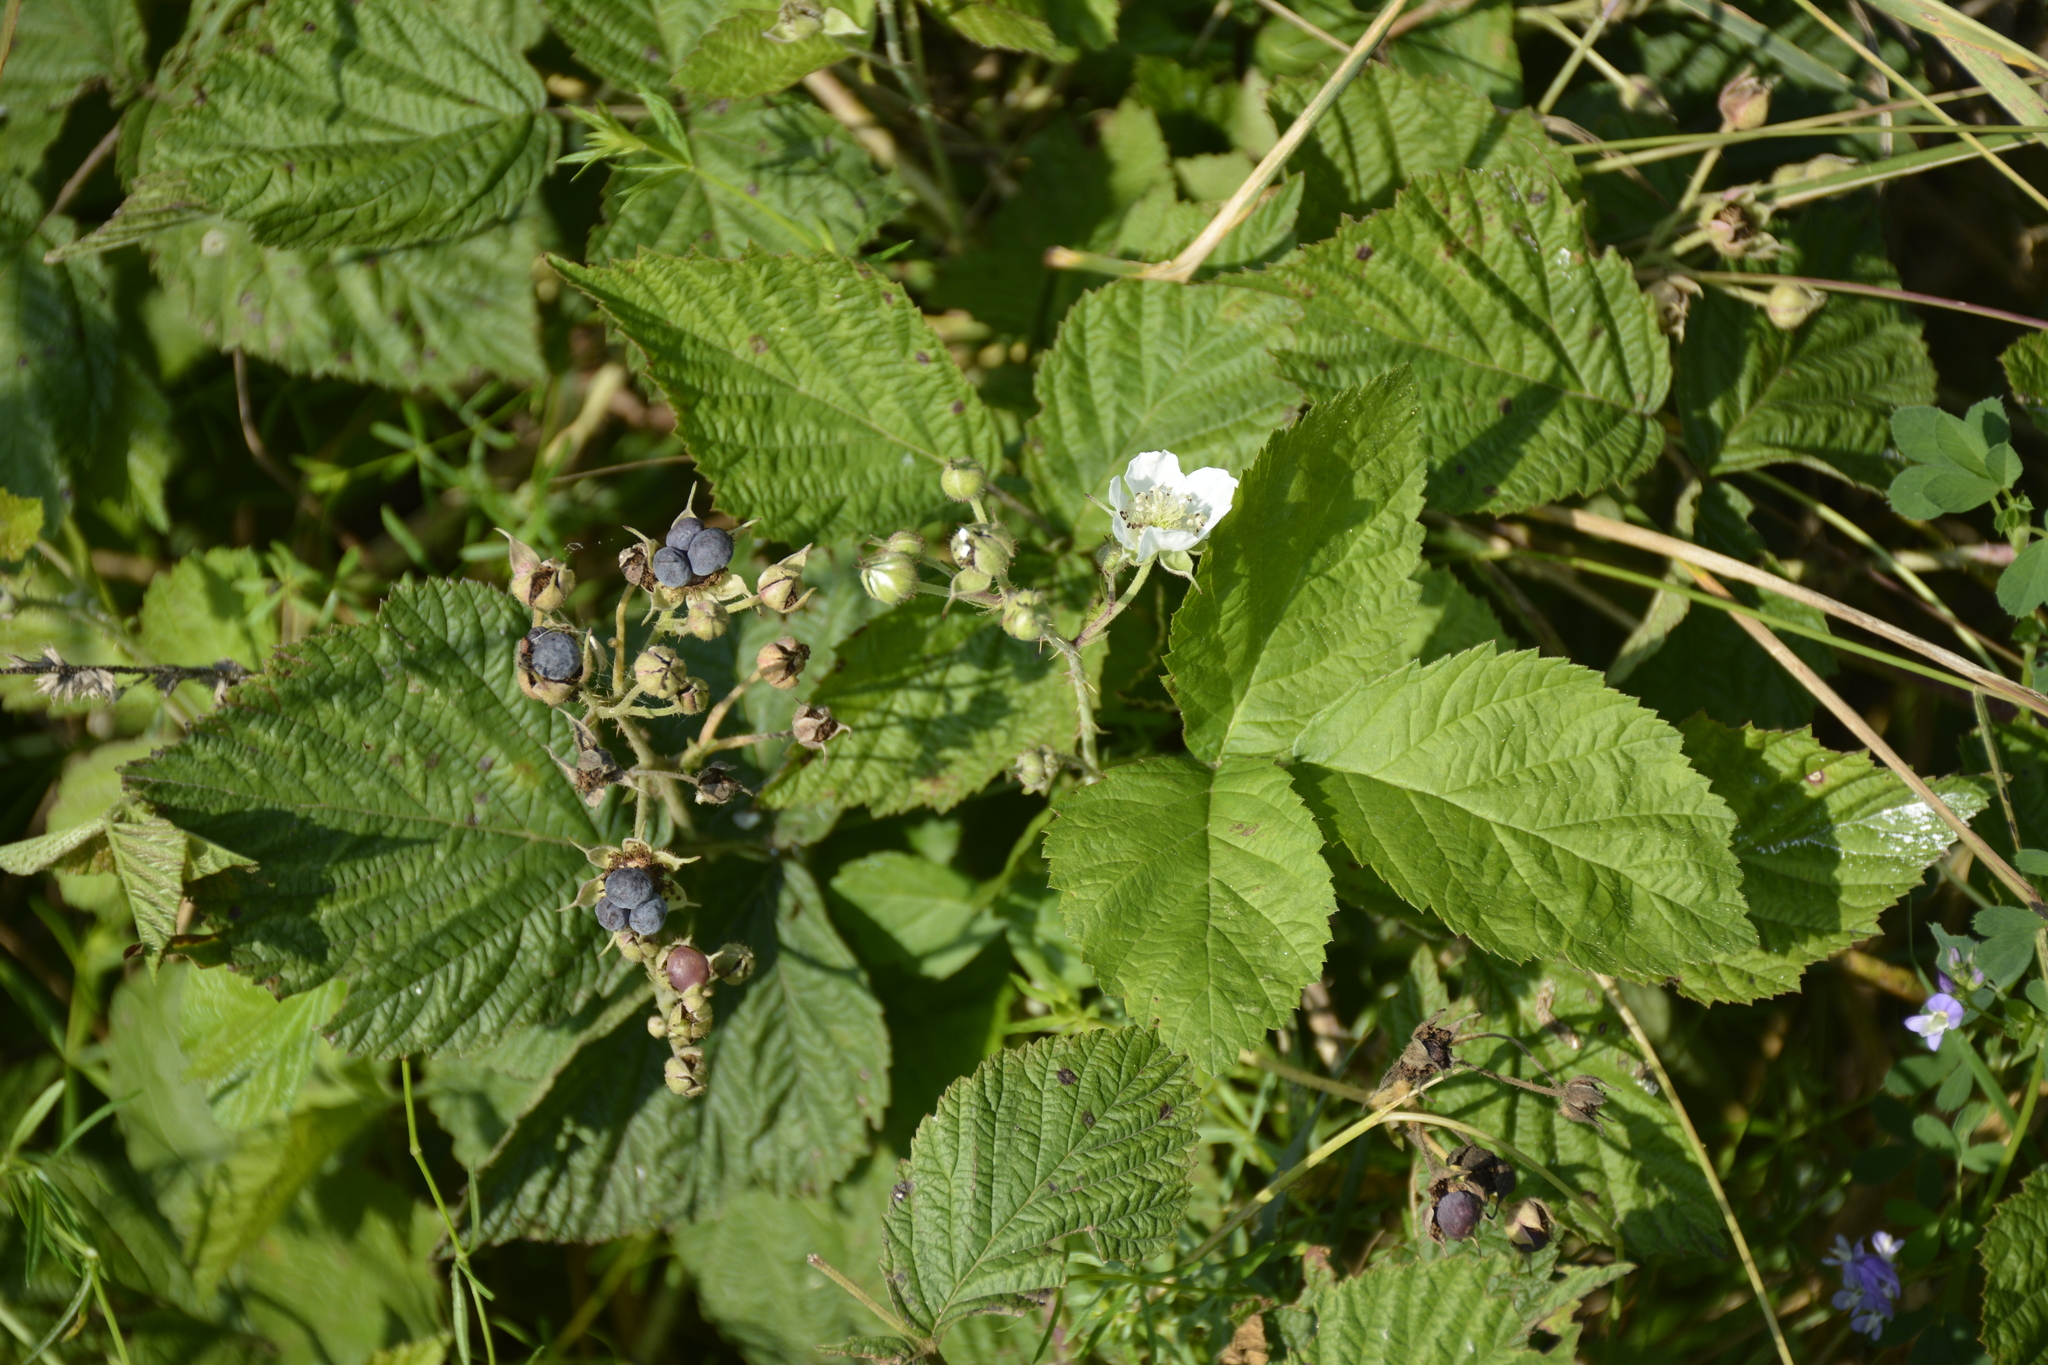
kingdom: Plantae
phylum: Tracheophyta
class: Magnoliopsida
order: Rosales
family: Rosaceae
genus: Rubus
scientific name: Rubus caesius
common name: Dewberry
